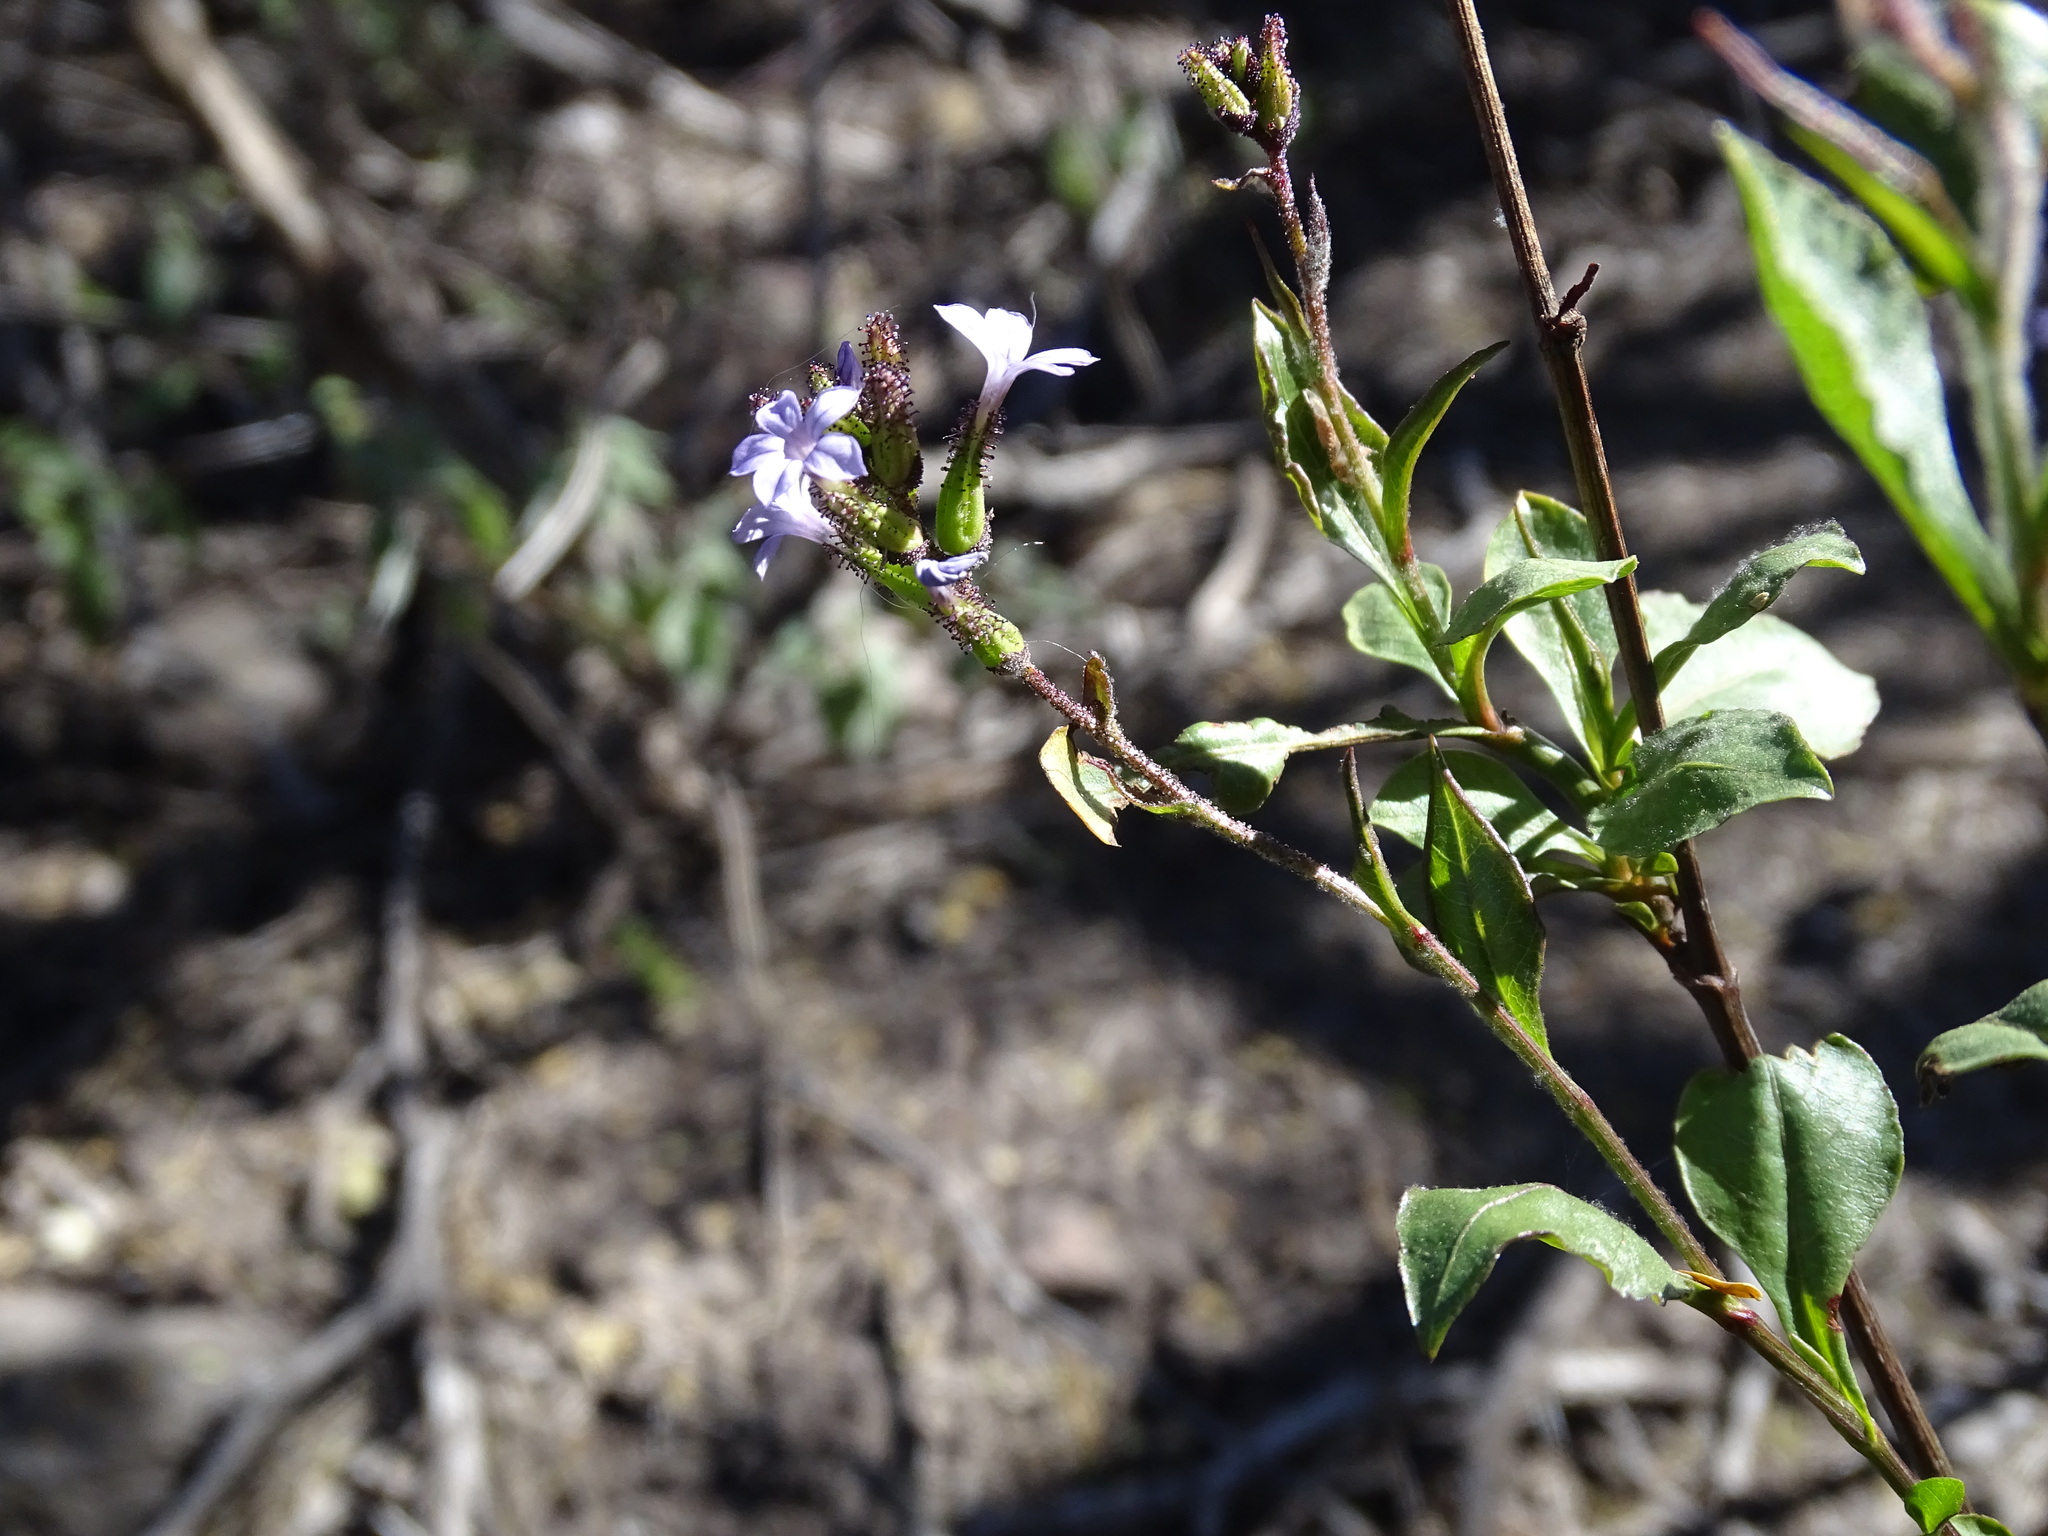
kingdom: Plantae
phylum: Tracheophyta
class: Magnoliopsida
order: Caryophyllales
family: Plumbaginaceae
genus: Plumbago
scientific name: Plumbago pulchella
